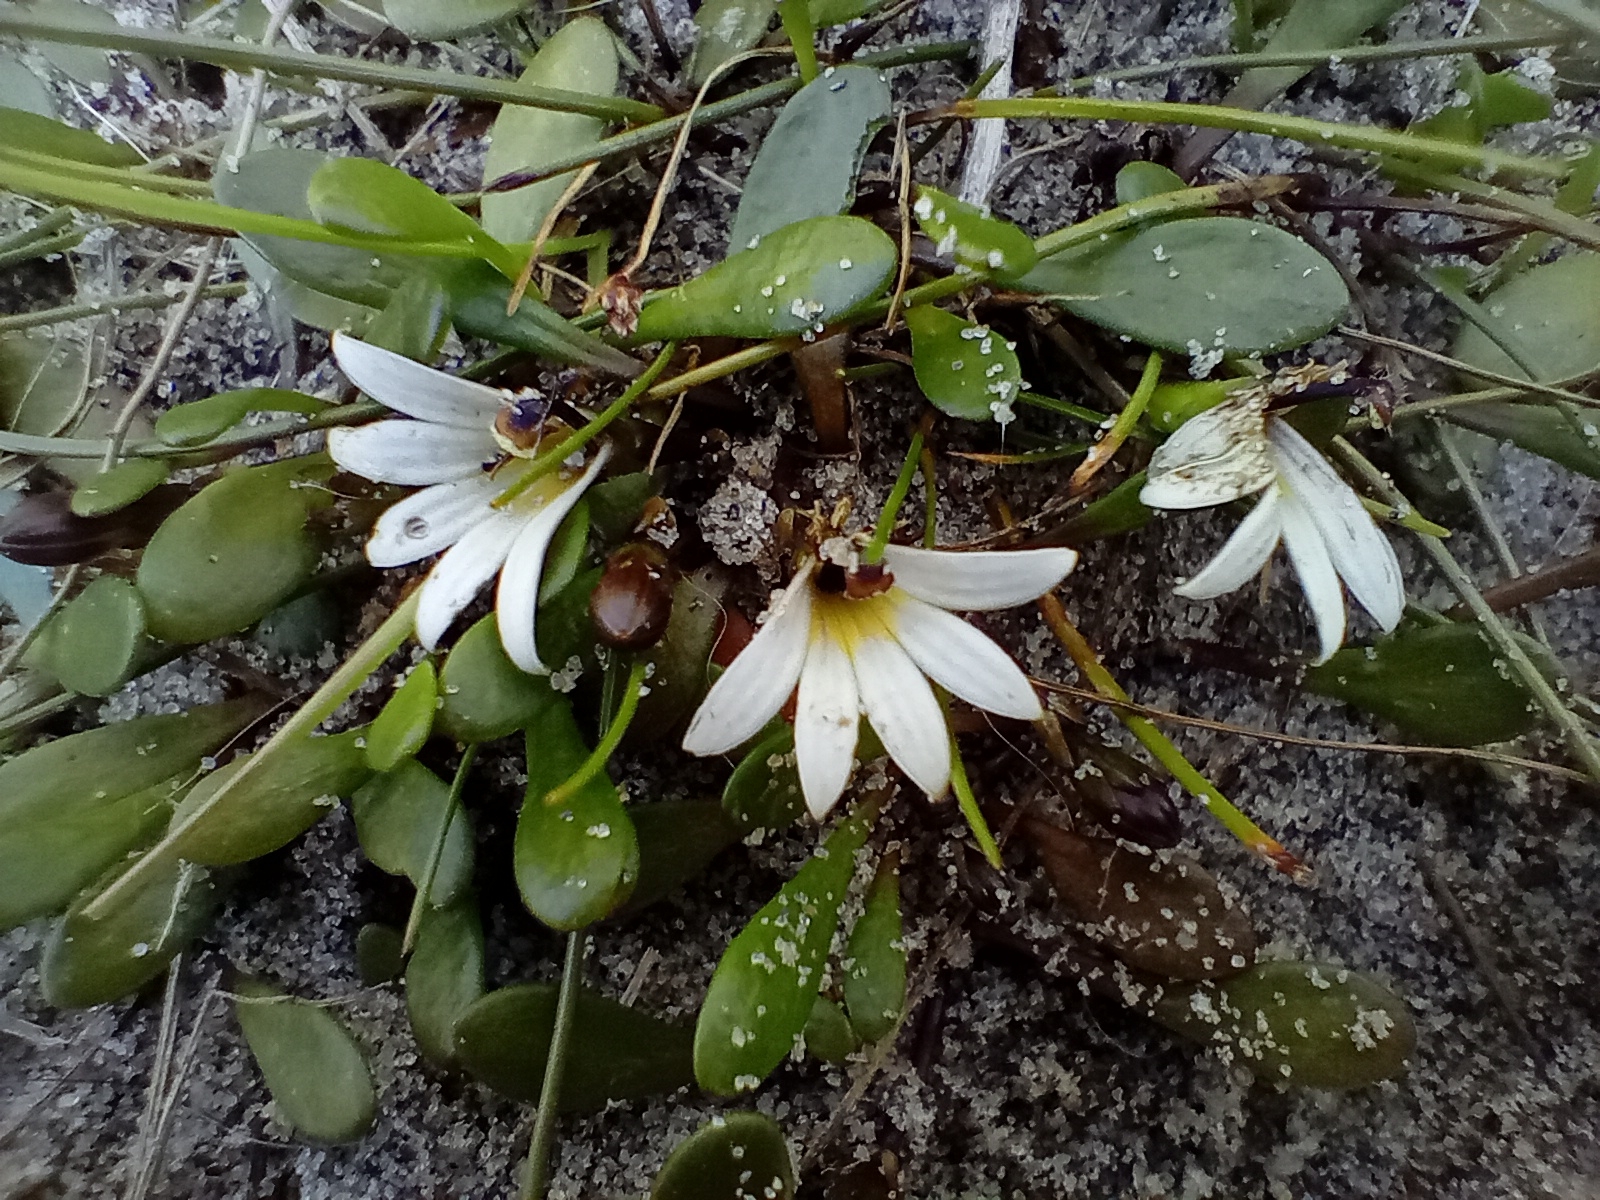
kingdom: Plantae
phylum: Tracheophyta
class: Magnoliopsida
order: Asterales
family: Goodeniaceae
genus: Goodenia
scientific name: Goodenia radicans
